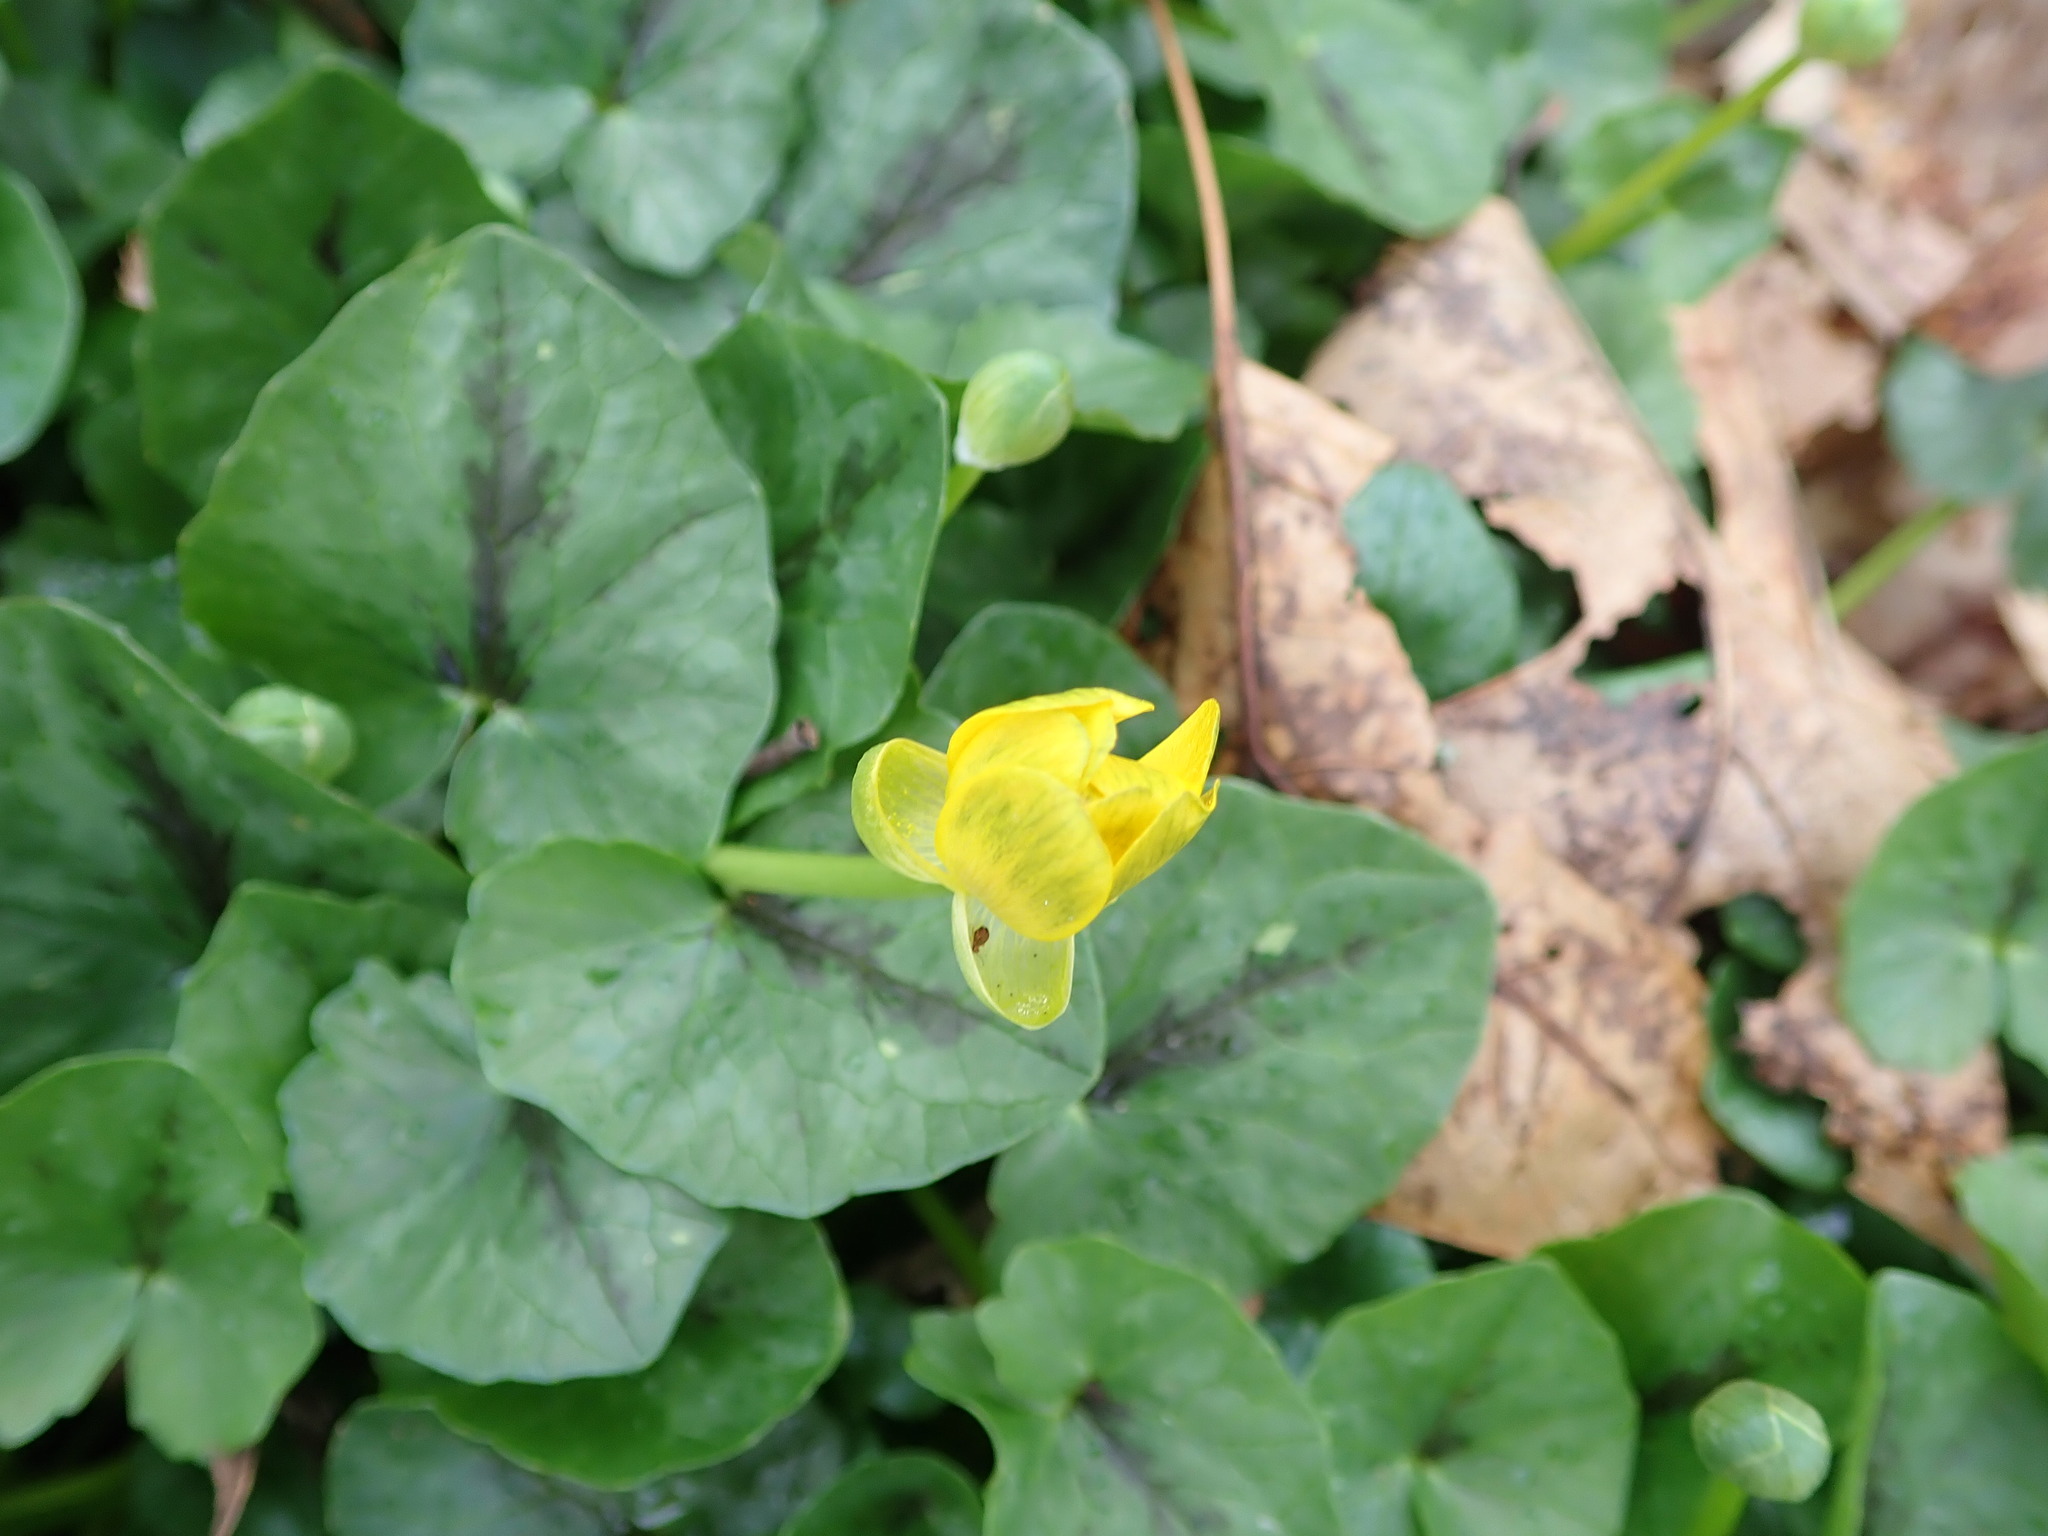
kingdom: Plantae
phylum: Tracheophyta
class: Magnoliopsida
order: Ranunculales
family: Ranunculaceae
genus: Ficaria
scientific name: Ficaria verna
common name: Lesser celandine
